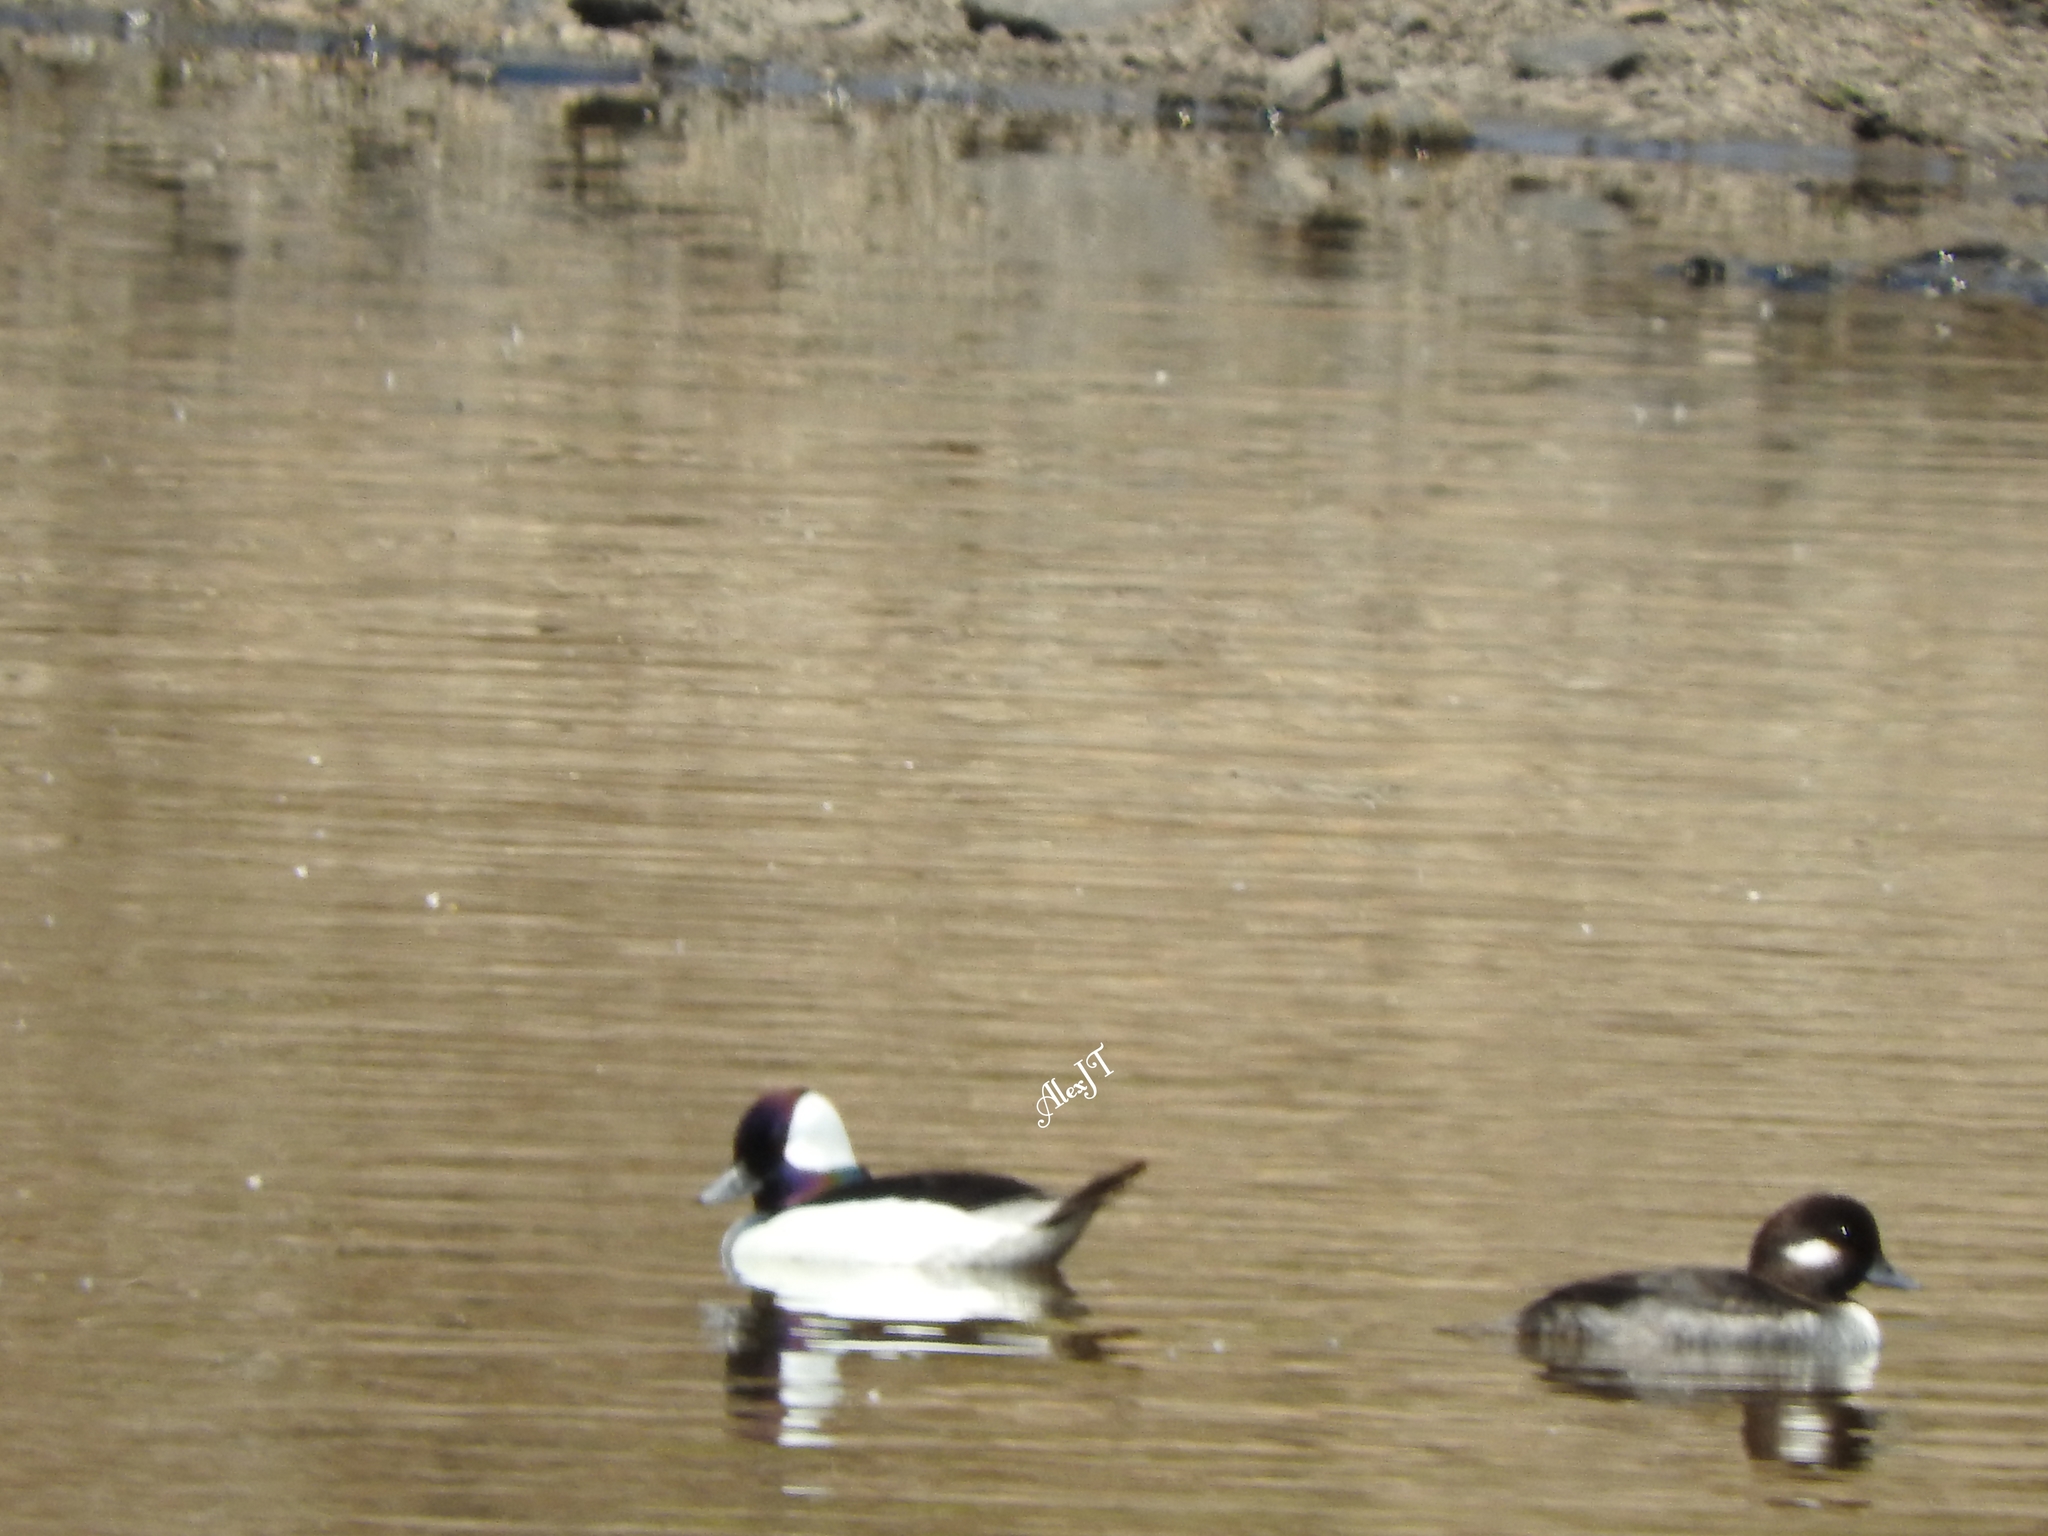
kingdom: Animalia
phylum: Chordata
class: Aves
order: Anseriformes
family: Anatidae
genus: Bucephala
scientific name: Bucephala albeola
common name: Bufflehead
